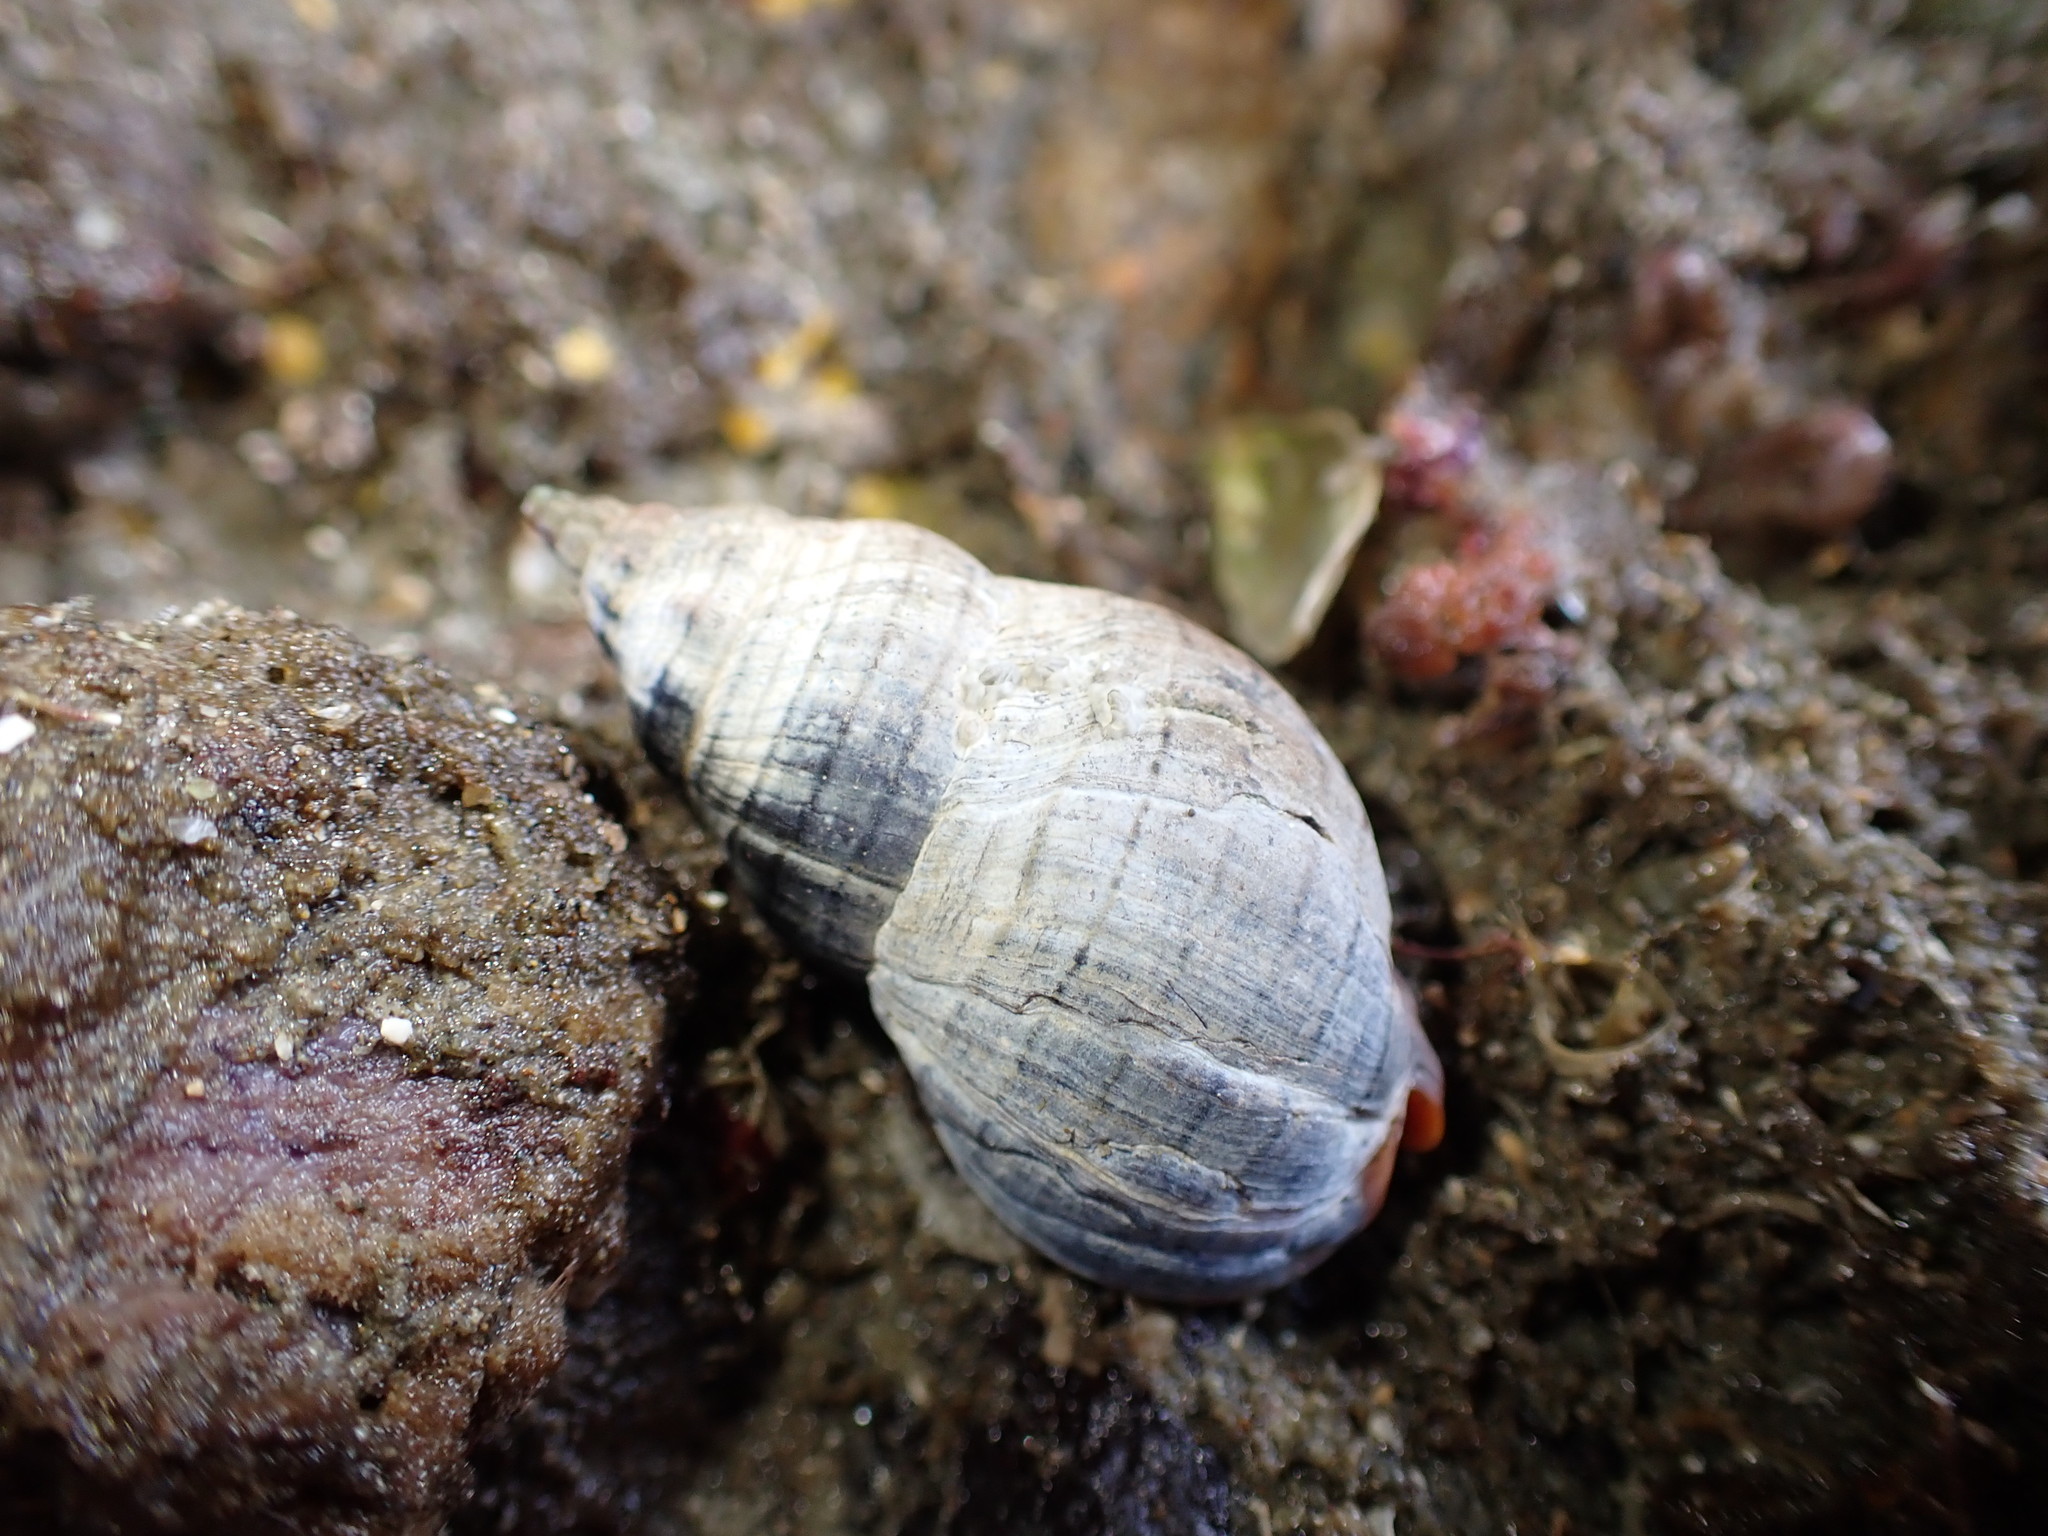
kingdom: Animalia
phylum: Mollusca
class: Gastropoda
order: Neogastropoda
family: Cominellidae
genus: Cominella
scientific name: Cominella virgata
